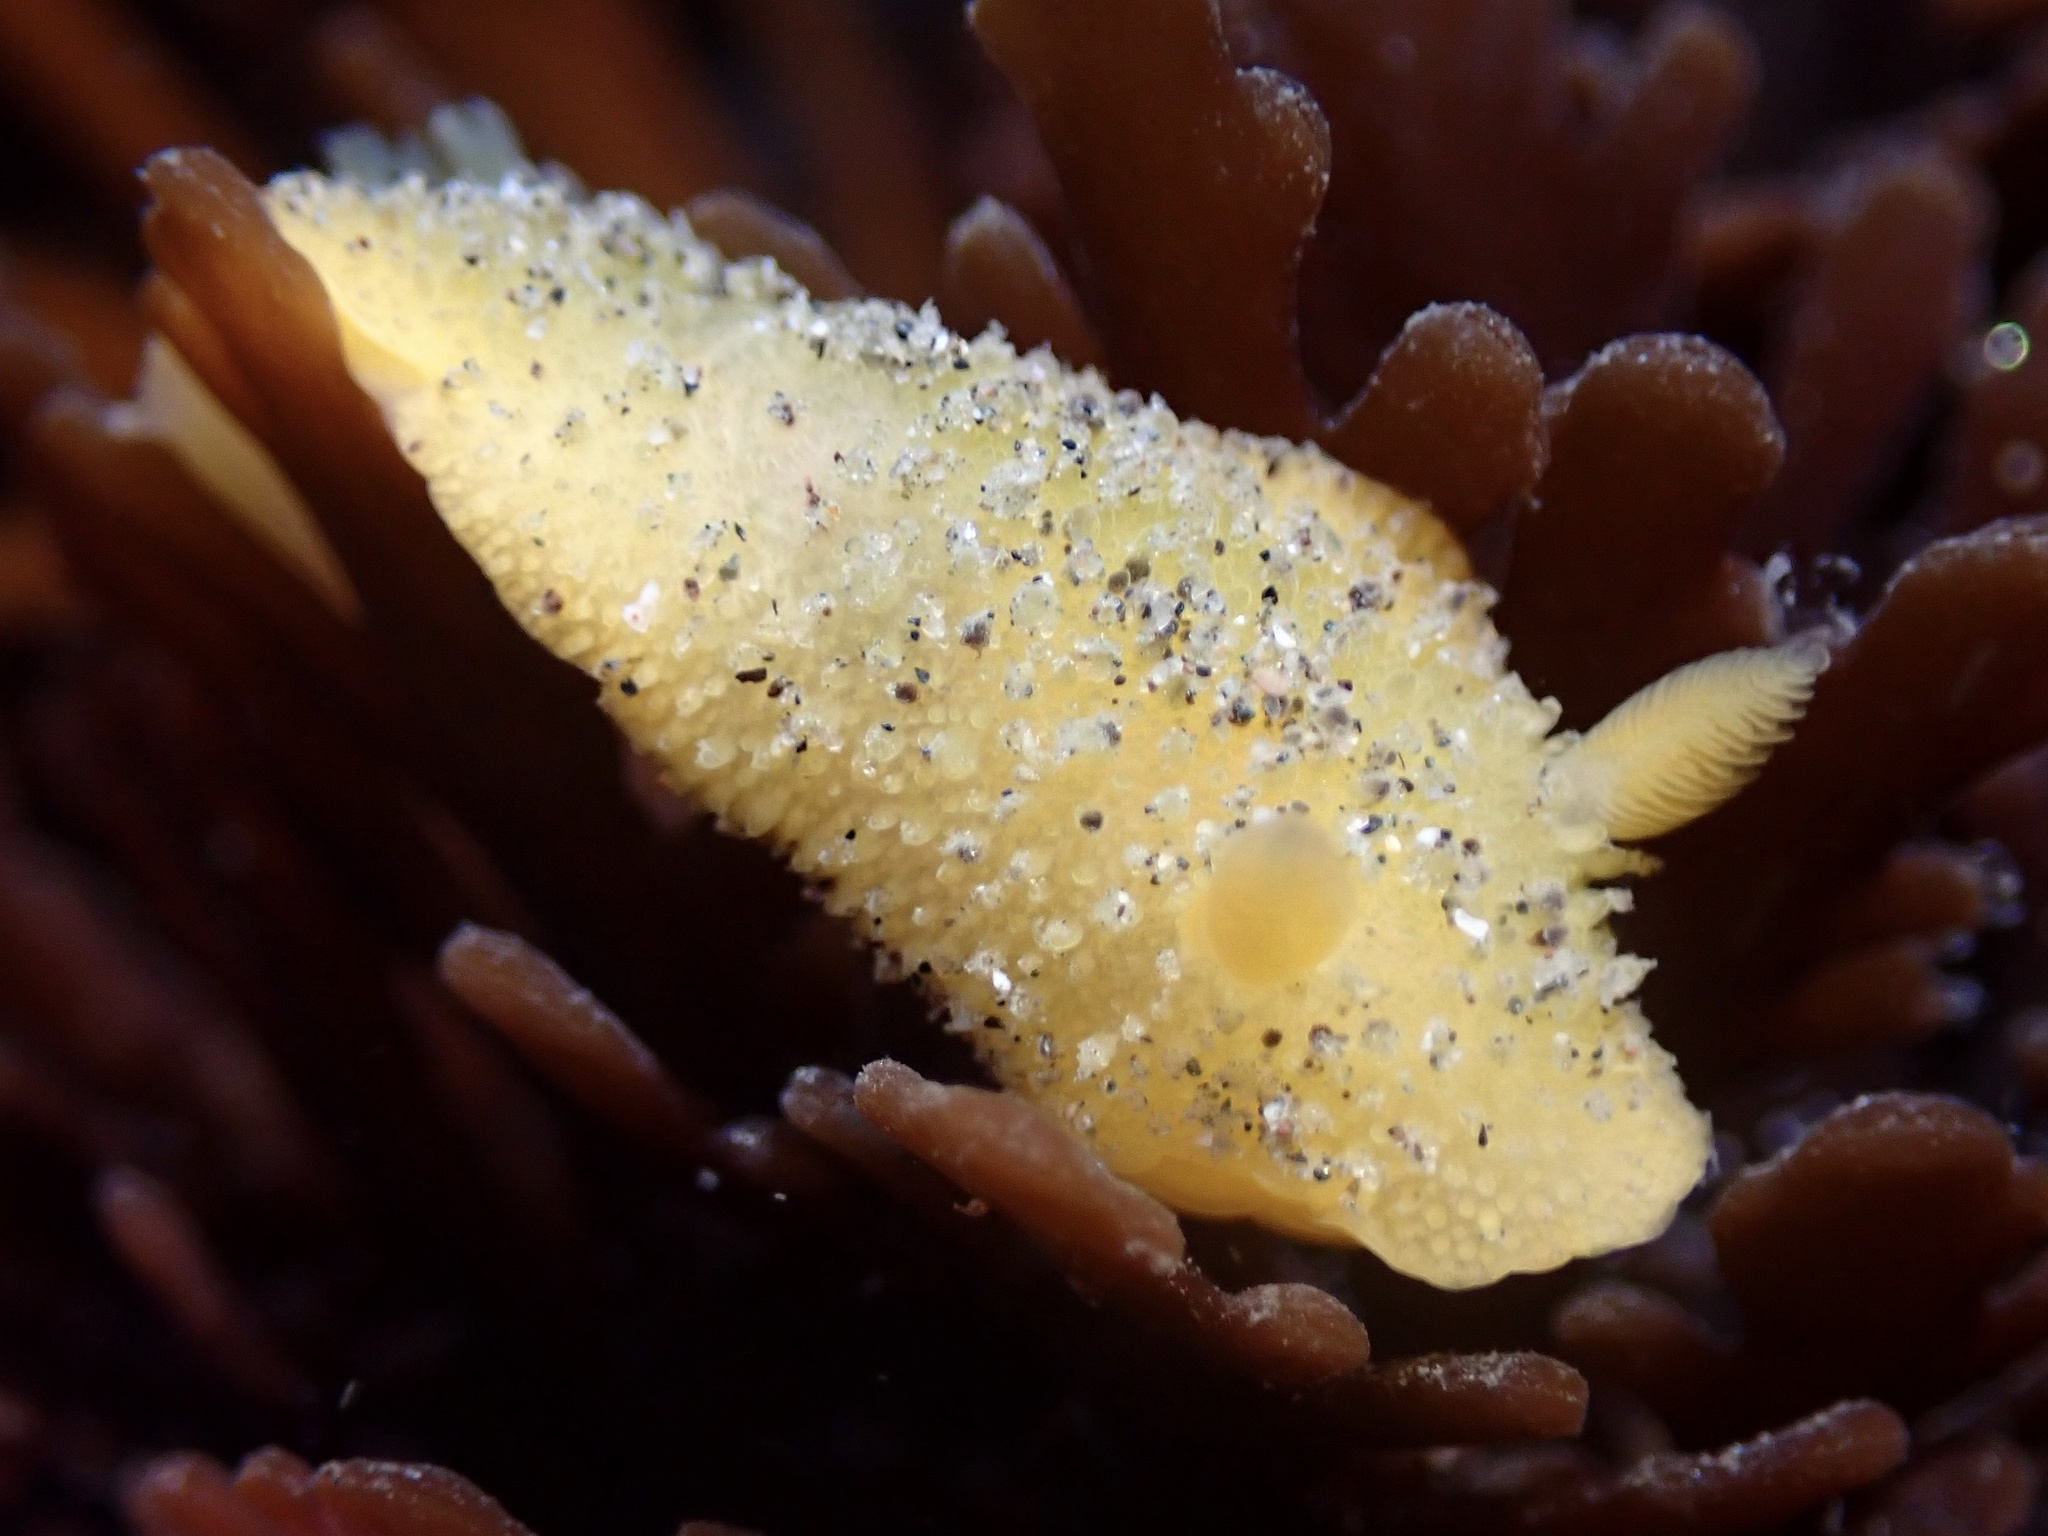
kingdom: Animalia
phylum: Mollusca
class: Gastropoda
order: Nudibranchia
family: Dorididae
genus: Doris
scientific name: Doris montereyensis
